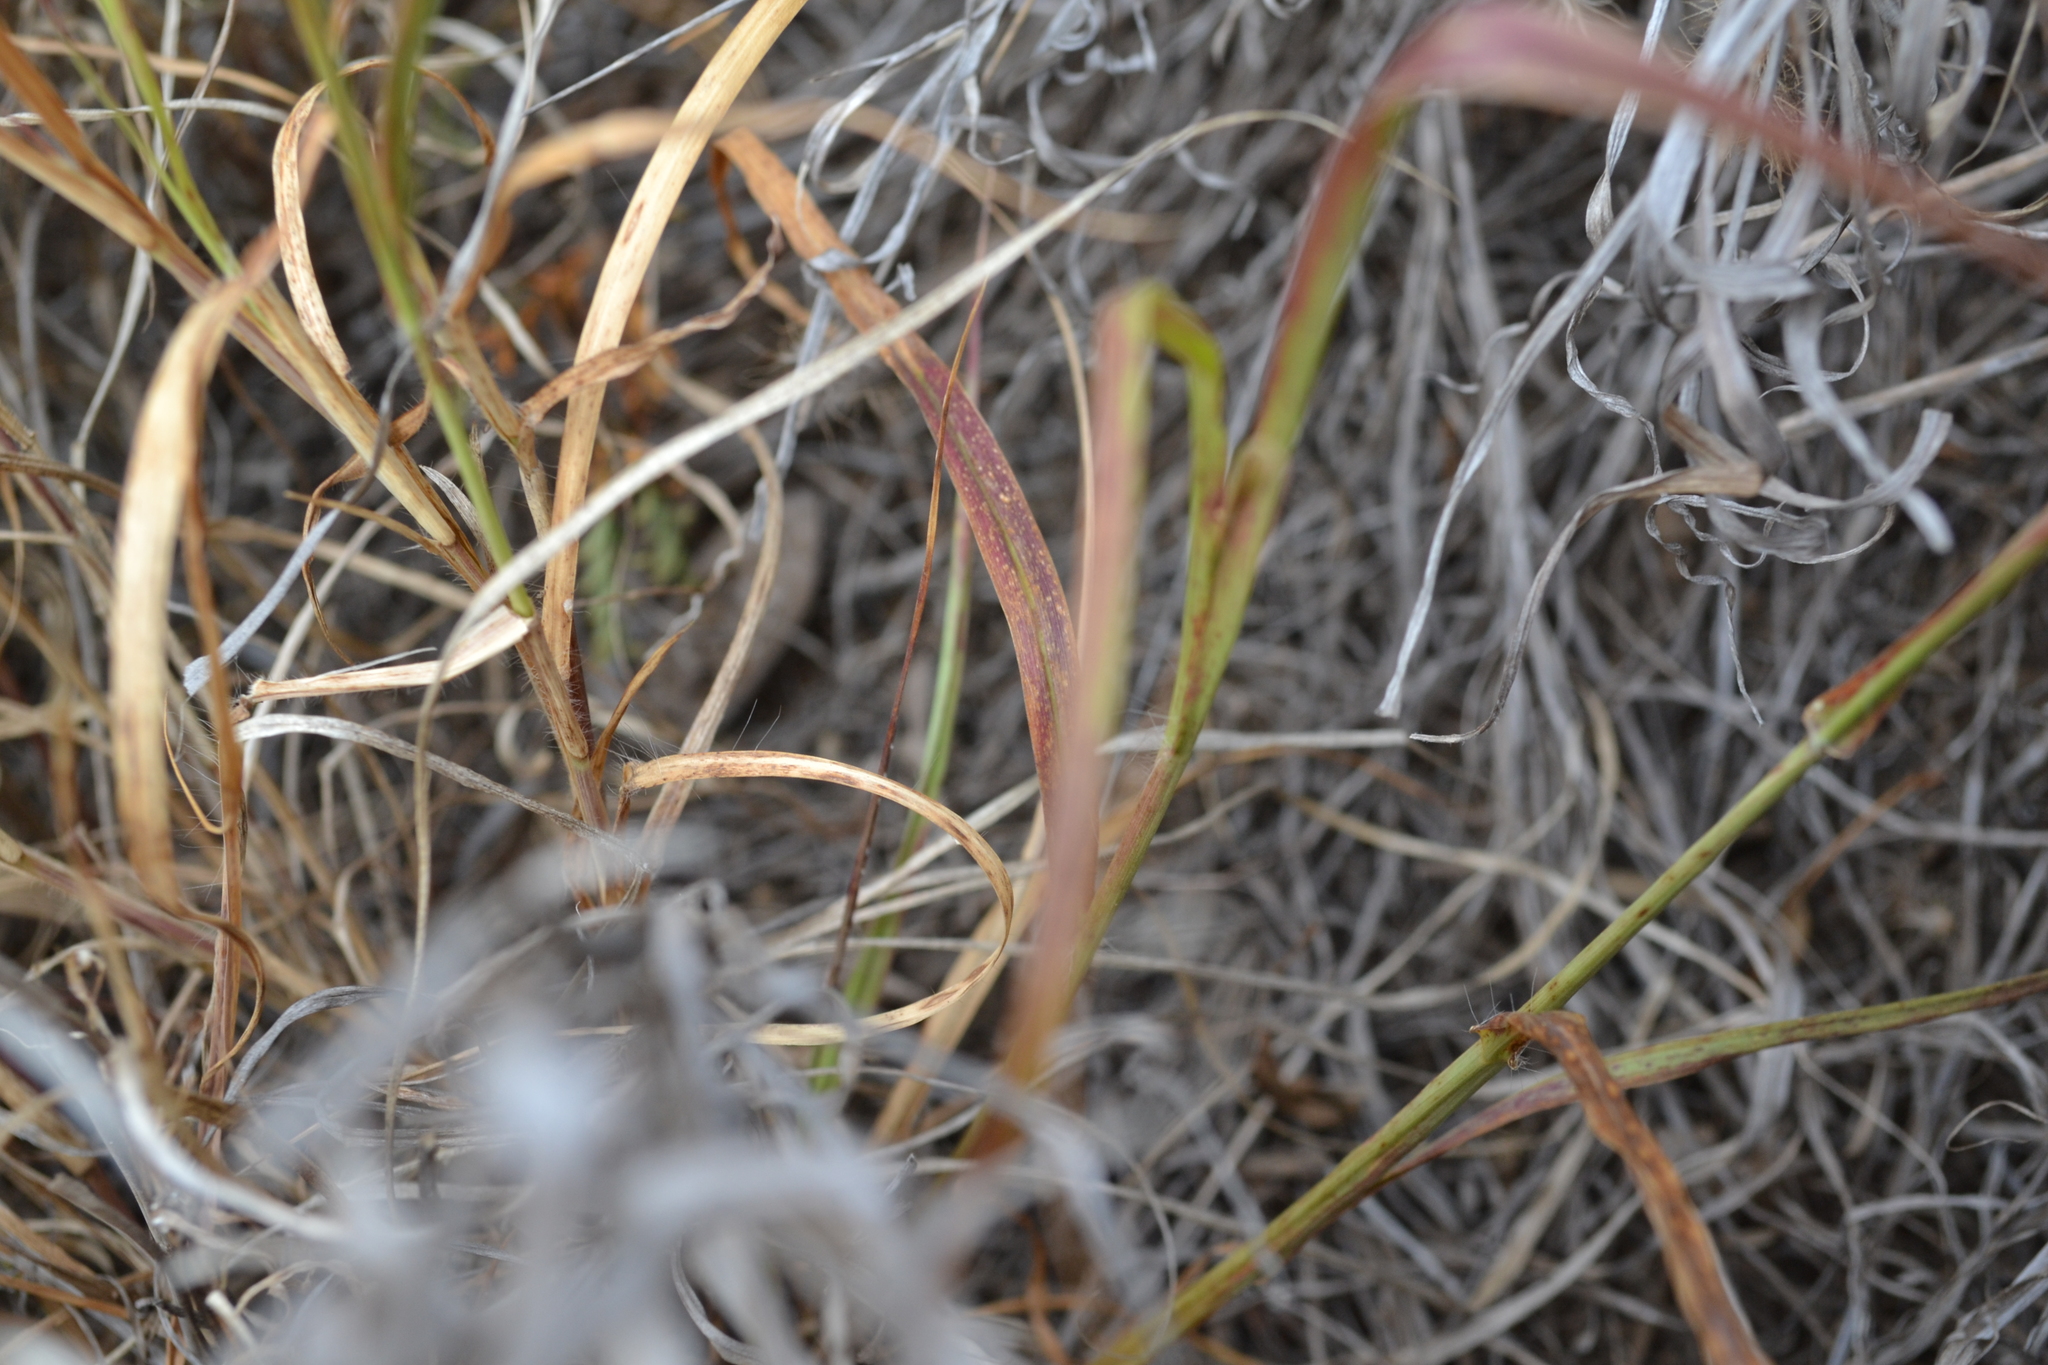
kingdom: Plantae
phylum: Tracheophyta
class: Liliopsida
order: Poales
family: Poaceae
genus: Cenchrus
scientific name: Cenchrus ciliaris
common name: Buffelgrass
